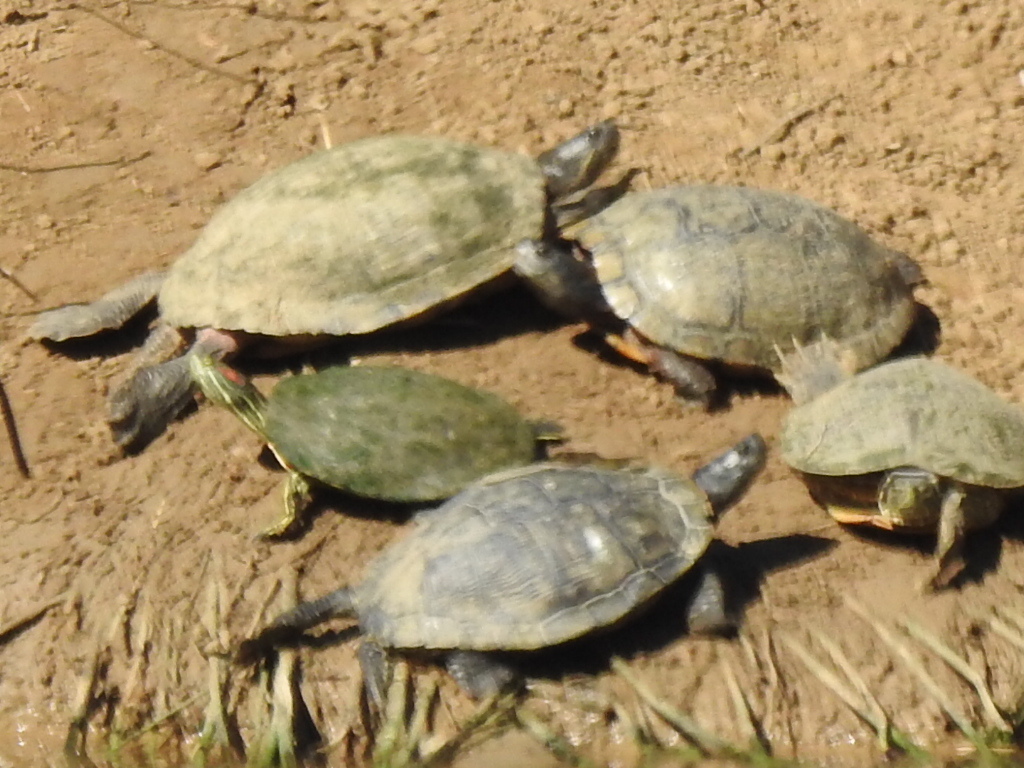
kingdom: Animalia
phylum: Chordata
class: Testudines
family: Emydidae
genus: Trachemys
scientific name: Trachemys scripta
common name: Slider
